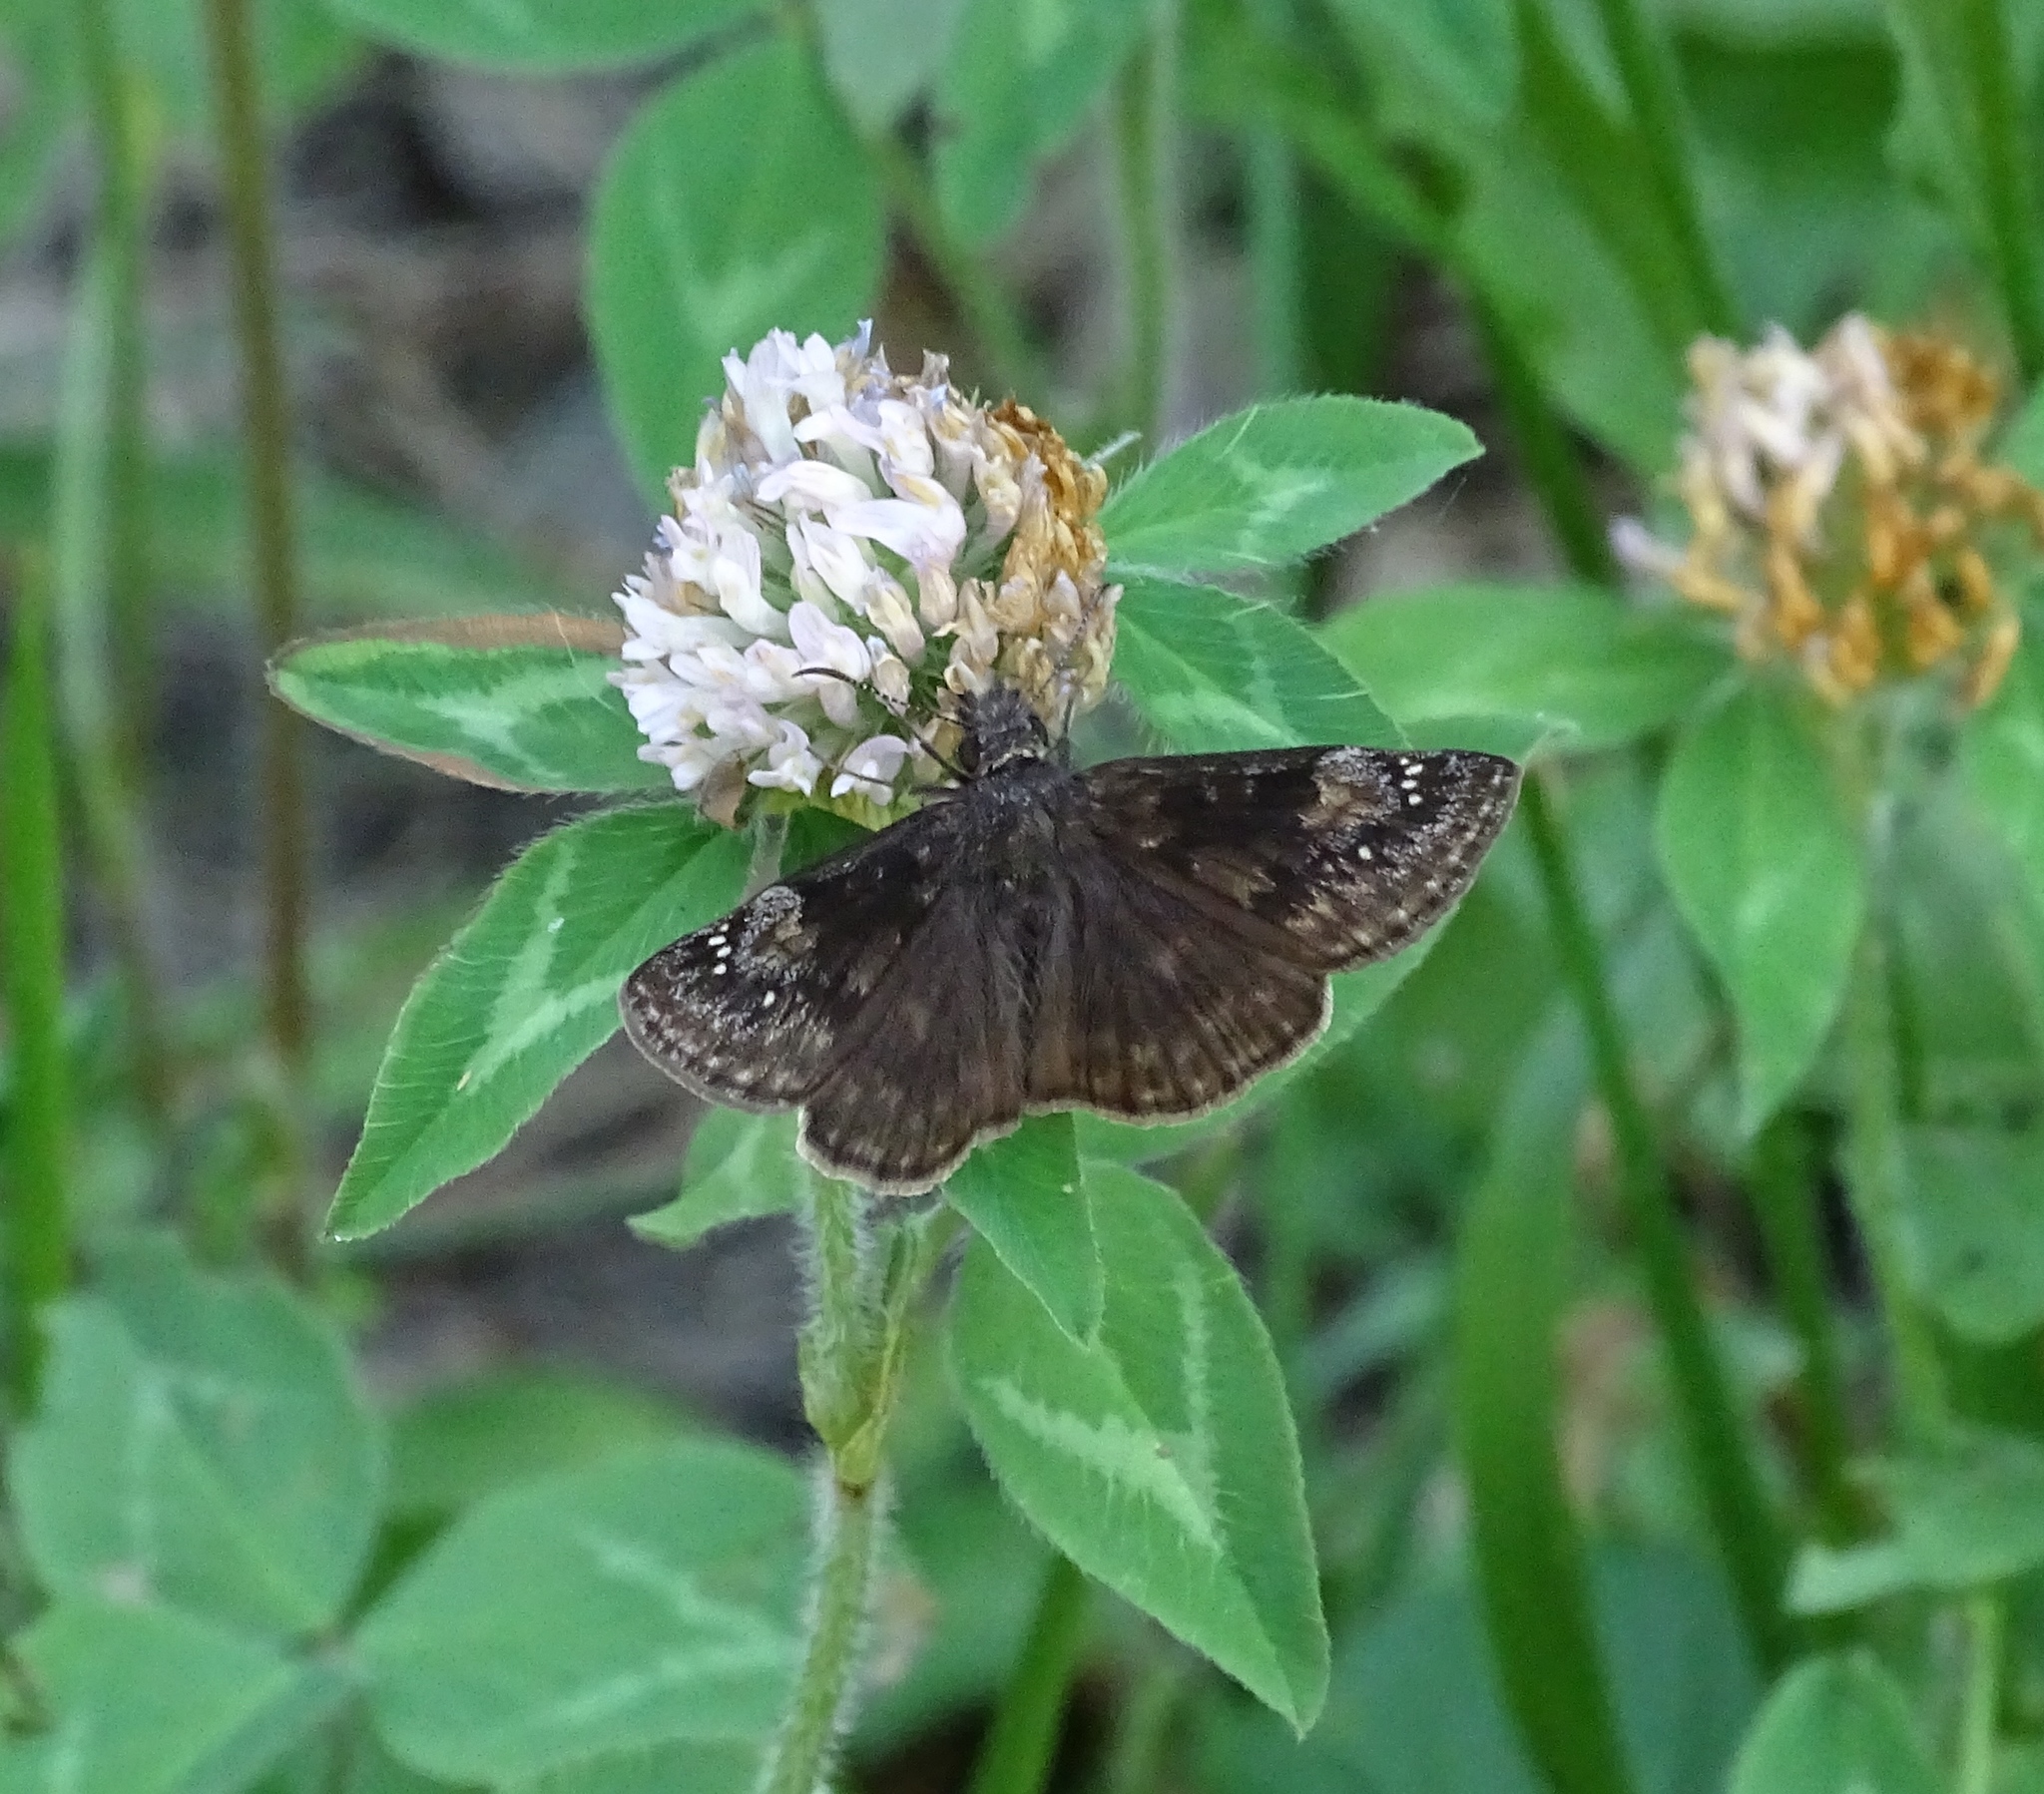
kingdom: Animalia
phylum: Arthropoda
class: Insecta
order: Lepidoptera
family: Hesperiidae
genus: Erynnis
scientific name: Erynnis baptisiae
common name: Wild indigo duskywing
